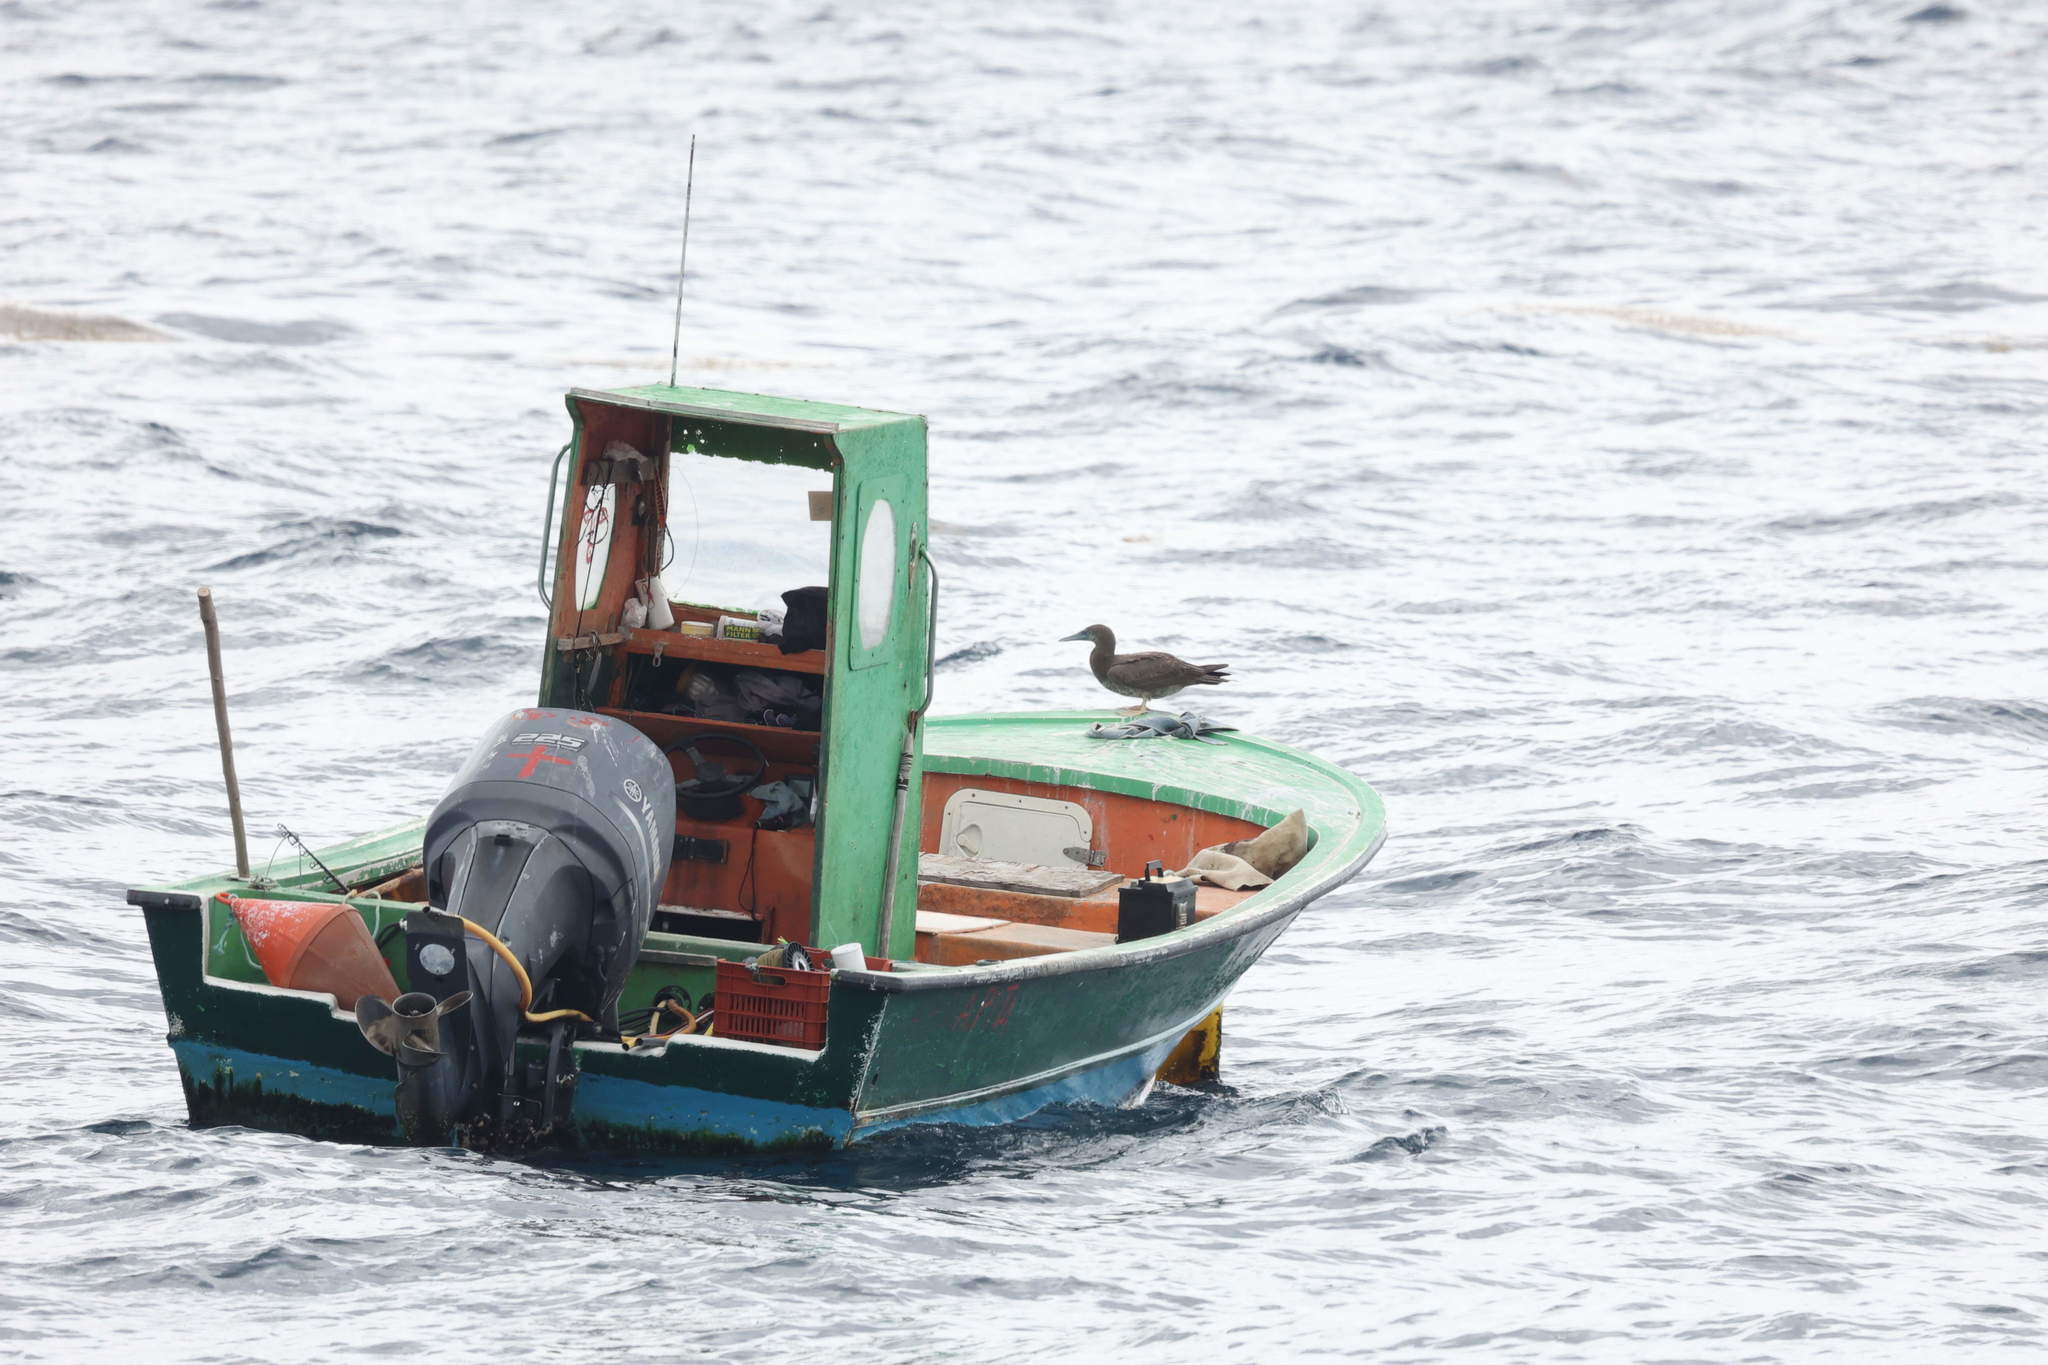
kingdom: Animalia
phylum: Chordata
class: Aves
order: Suliformes
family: Sulidae
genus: Sula
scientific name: Sula leucogaster
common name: Brown booby
